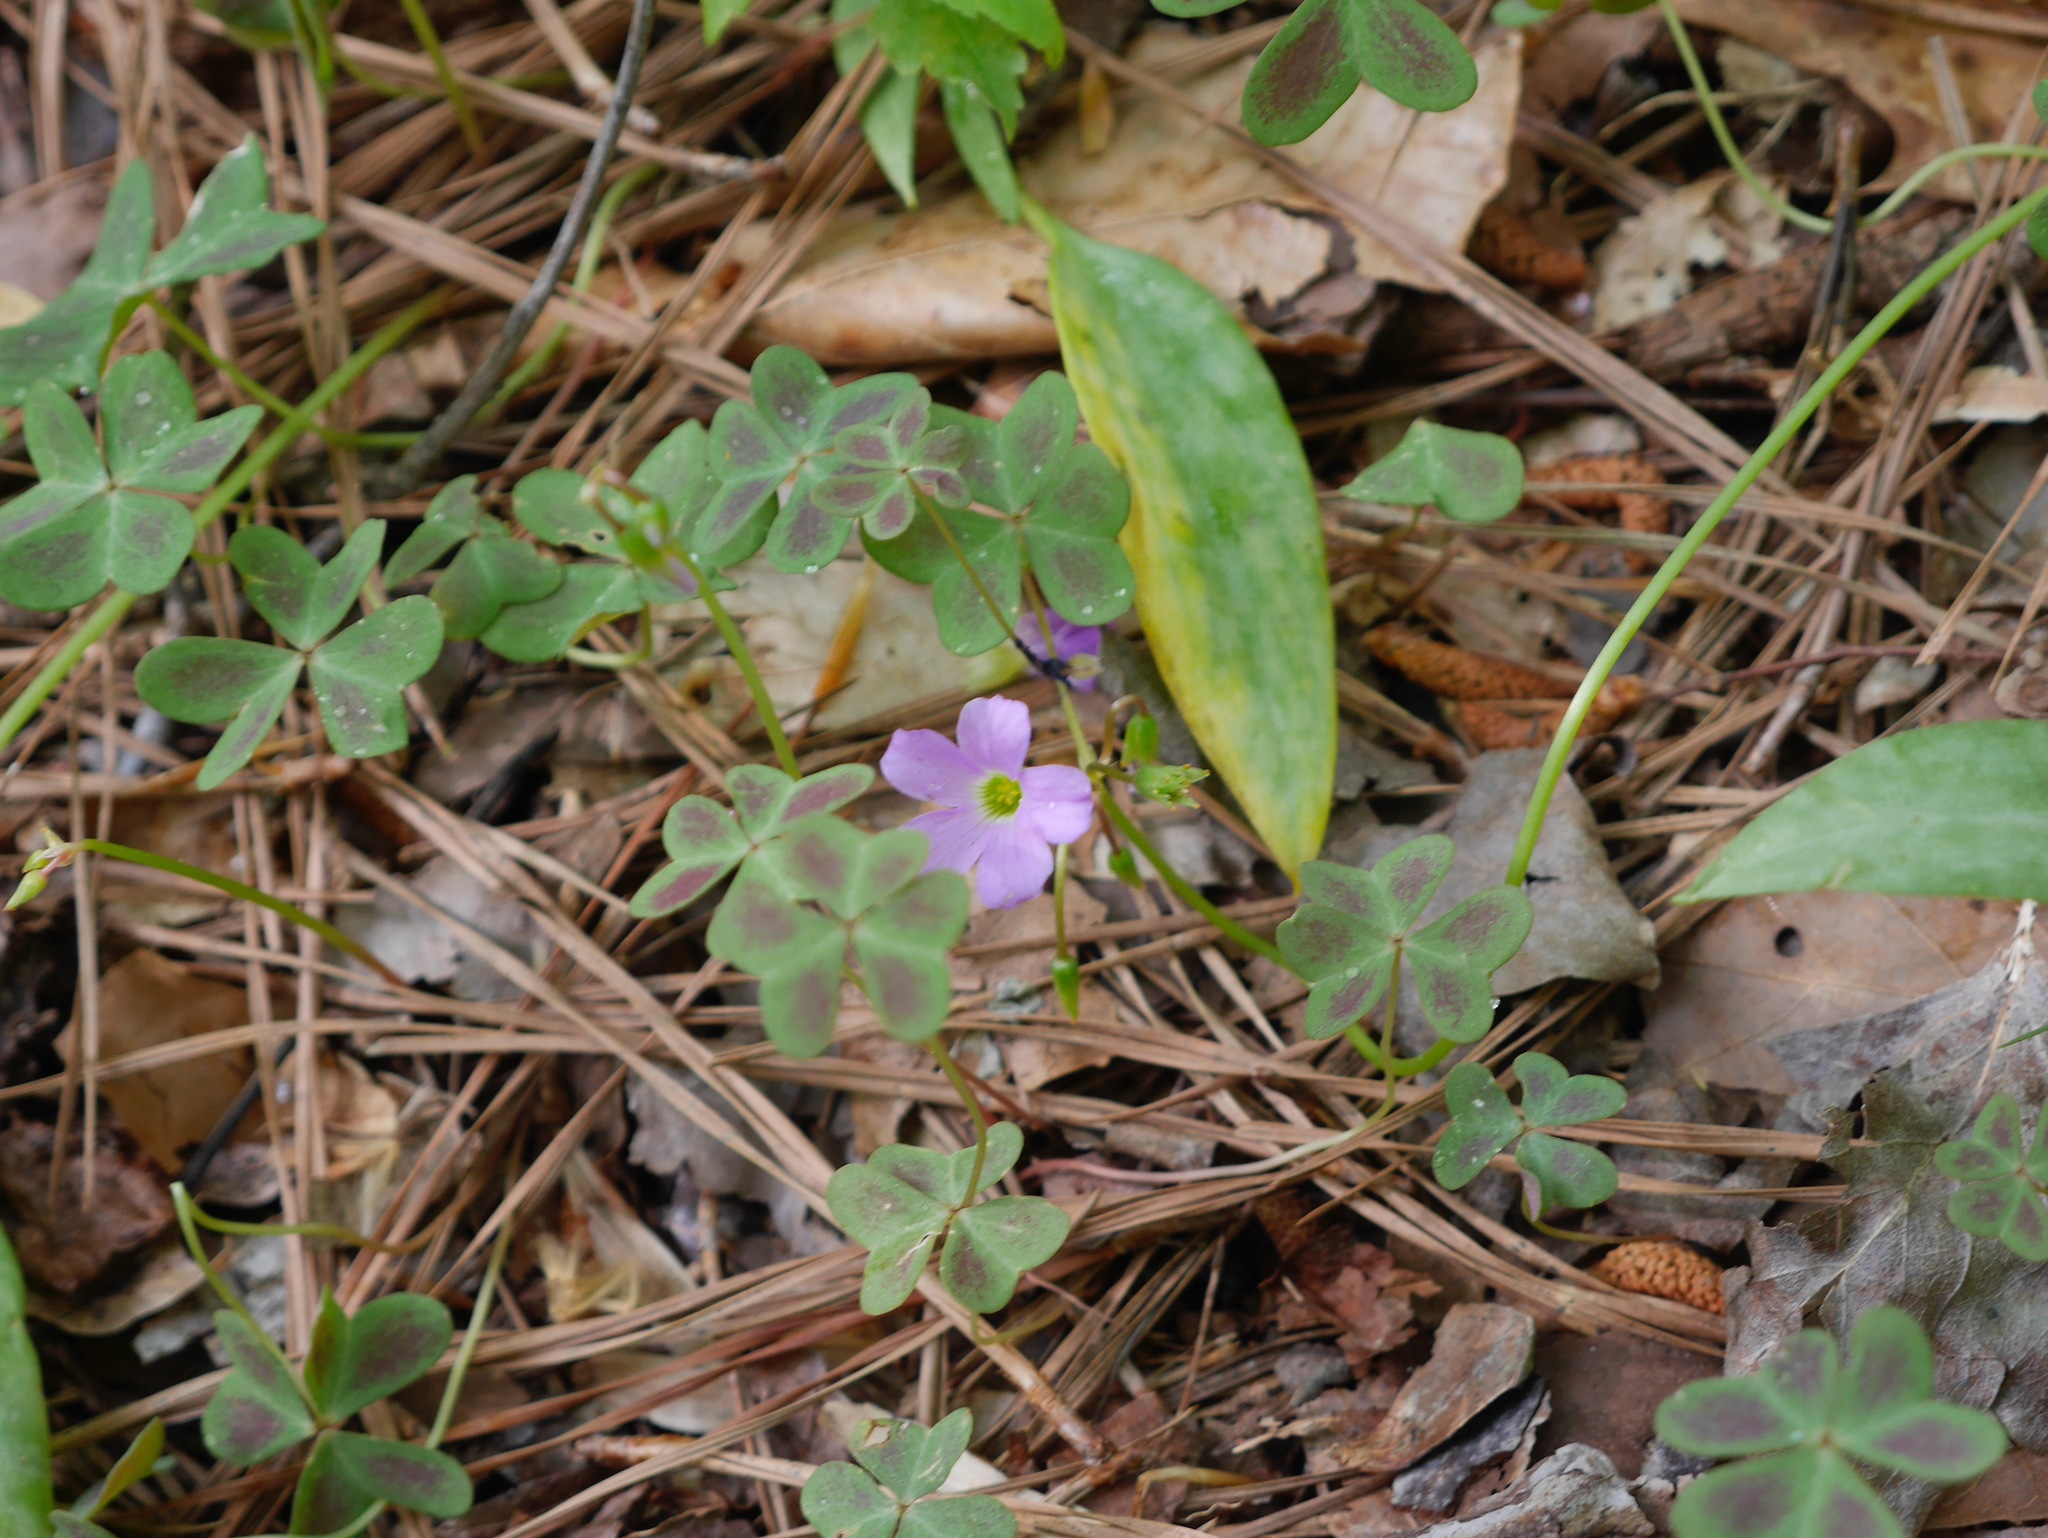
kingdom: Plantae
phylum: Tracheophyta
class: Magnoliopsida
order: Oxalidales
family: Oxalidaceae
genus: Oxalis
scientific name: Oxalis violacea
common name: Violet wood-sorrel
